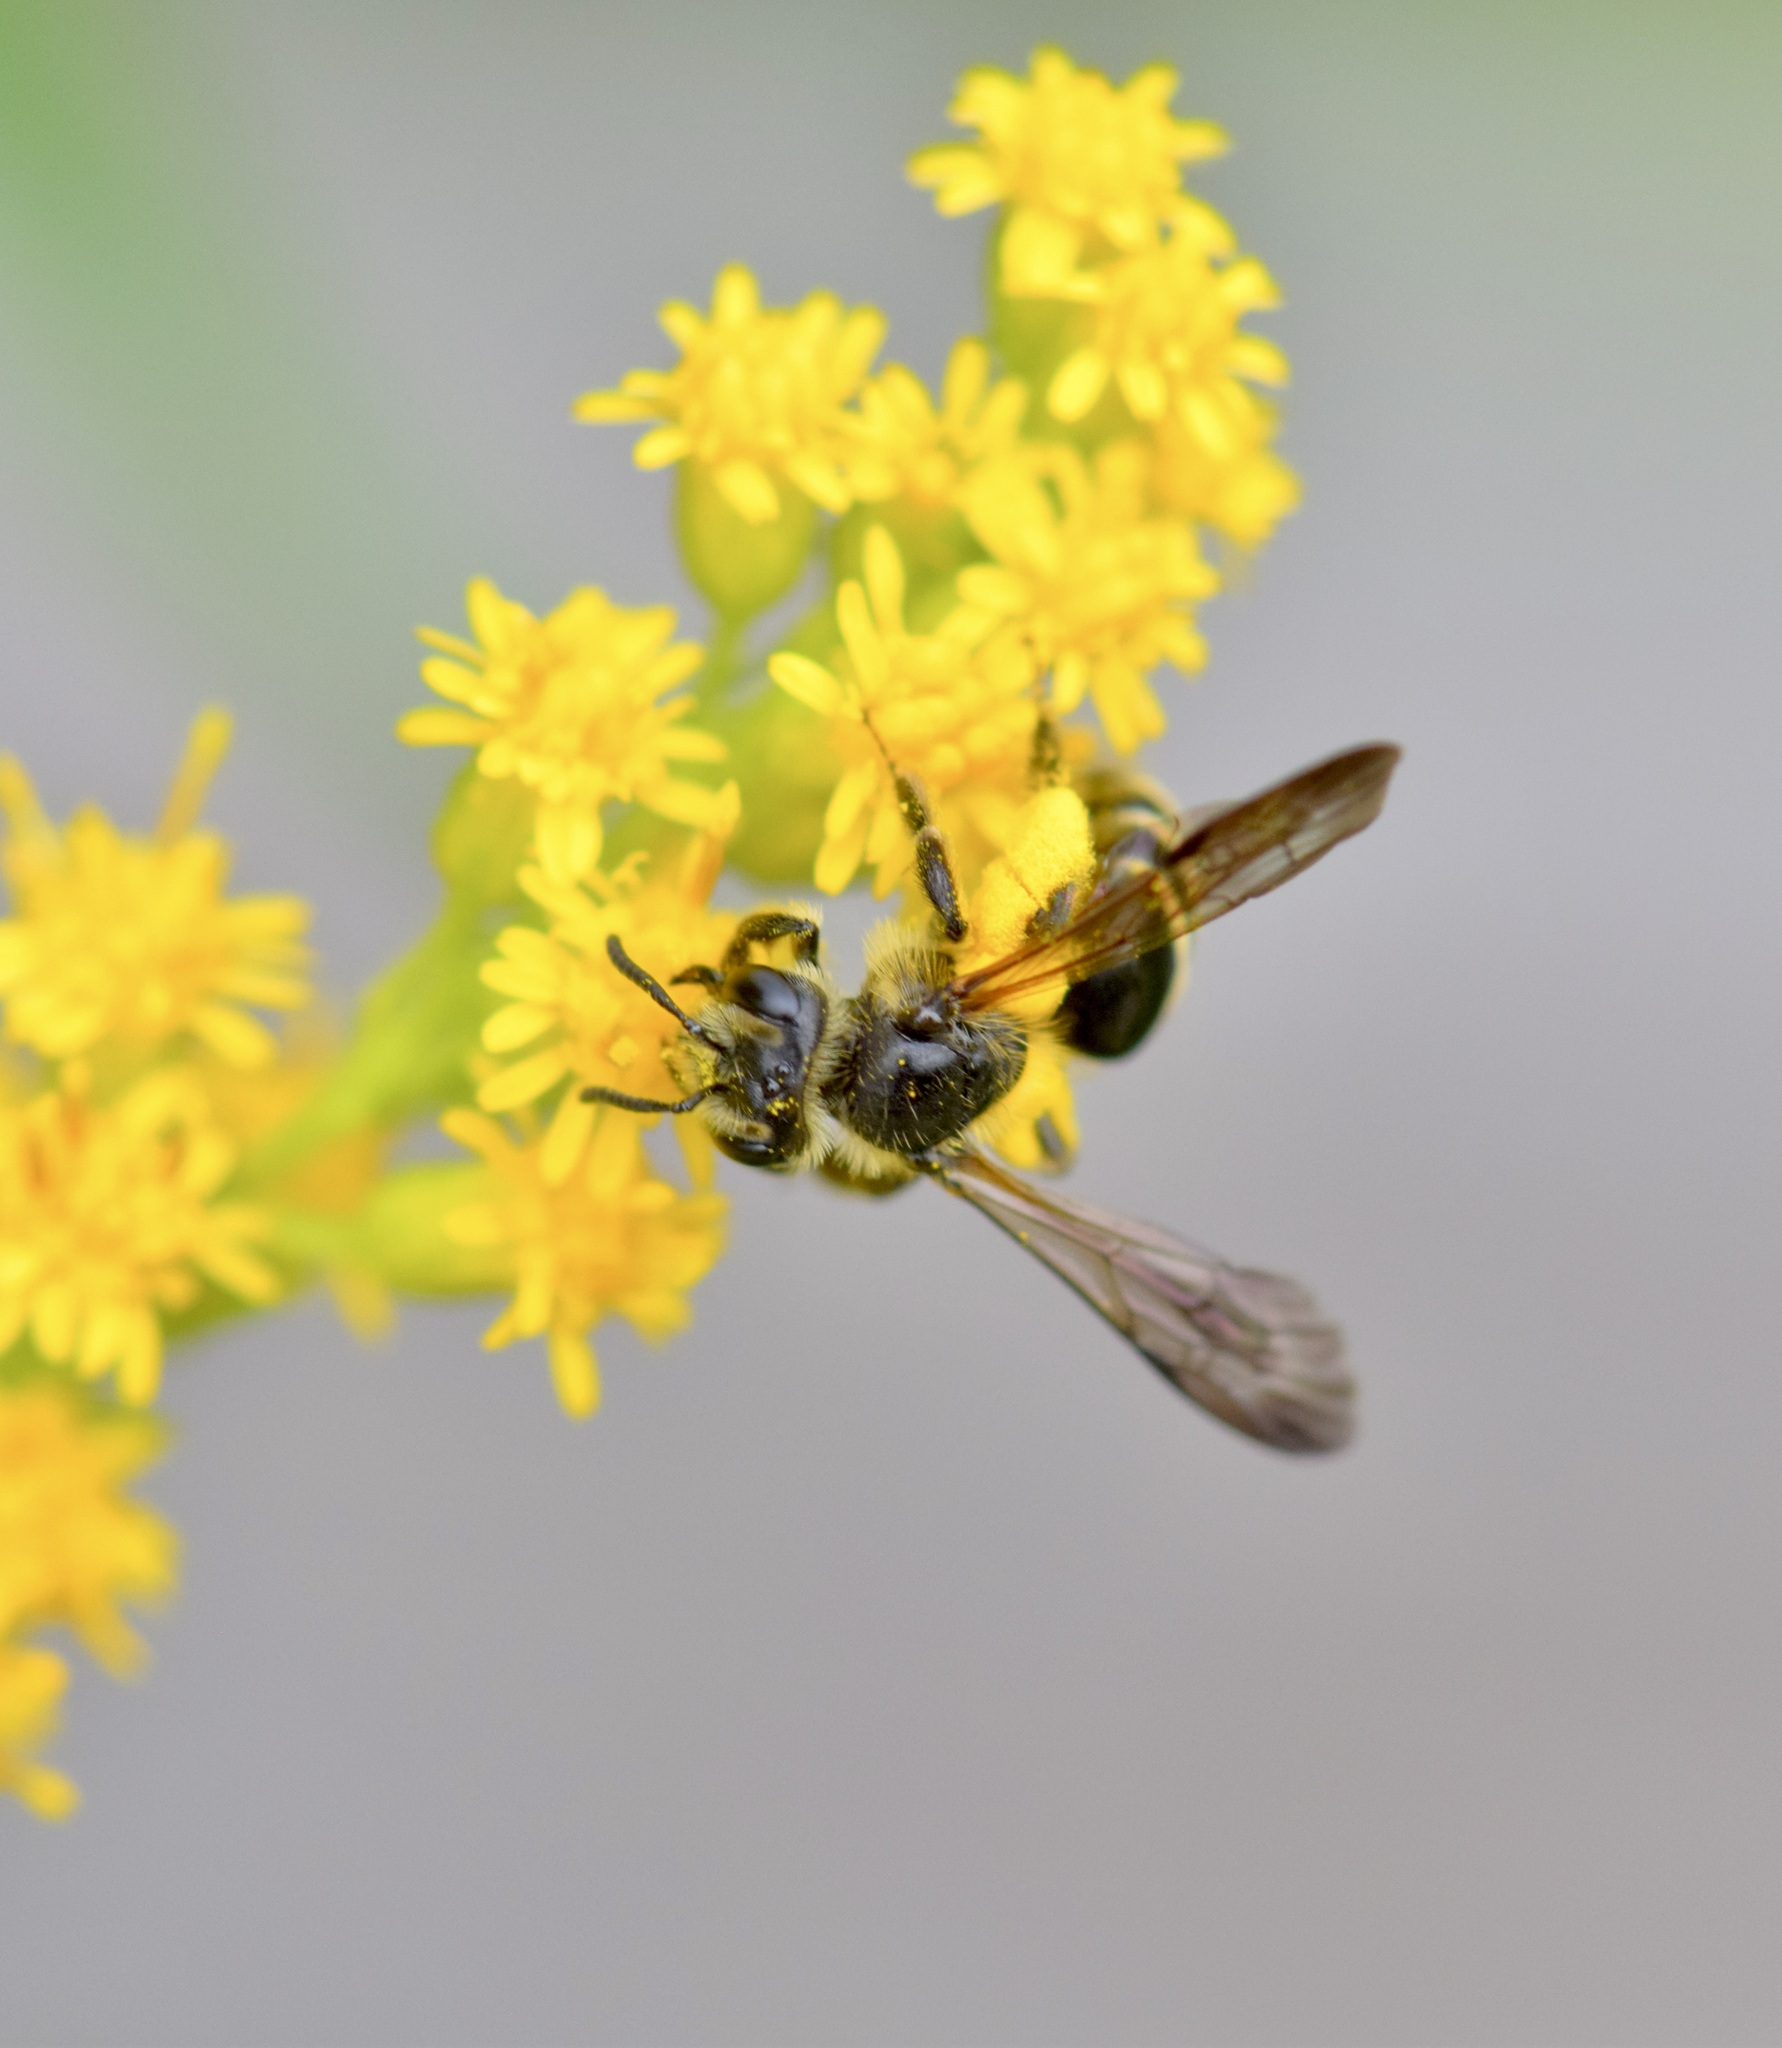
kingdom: Animalia
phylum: Arthropoda
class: Insecta
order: Hymenoptera
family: Andrenidae
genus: Andrena
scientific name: Andrena nubecula
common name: Cloudy-winged mining bee
